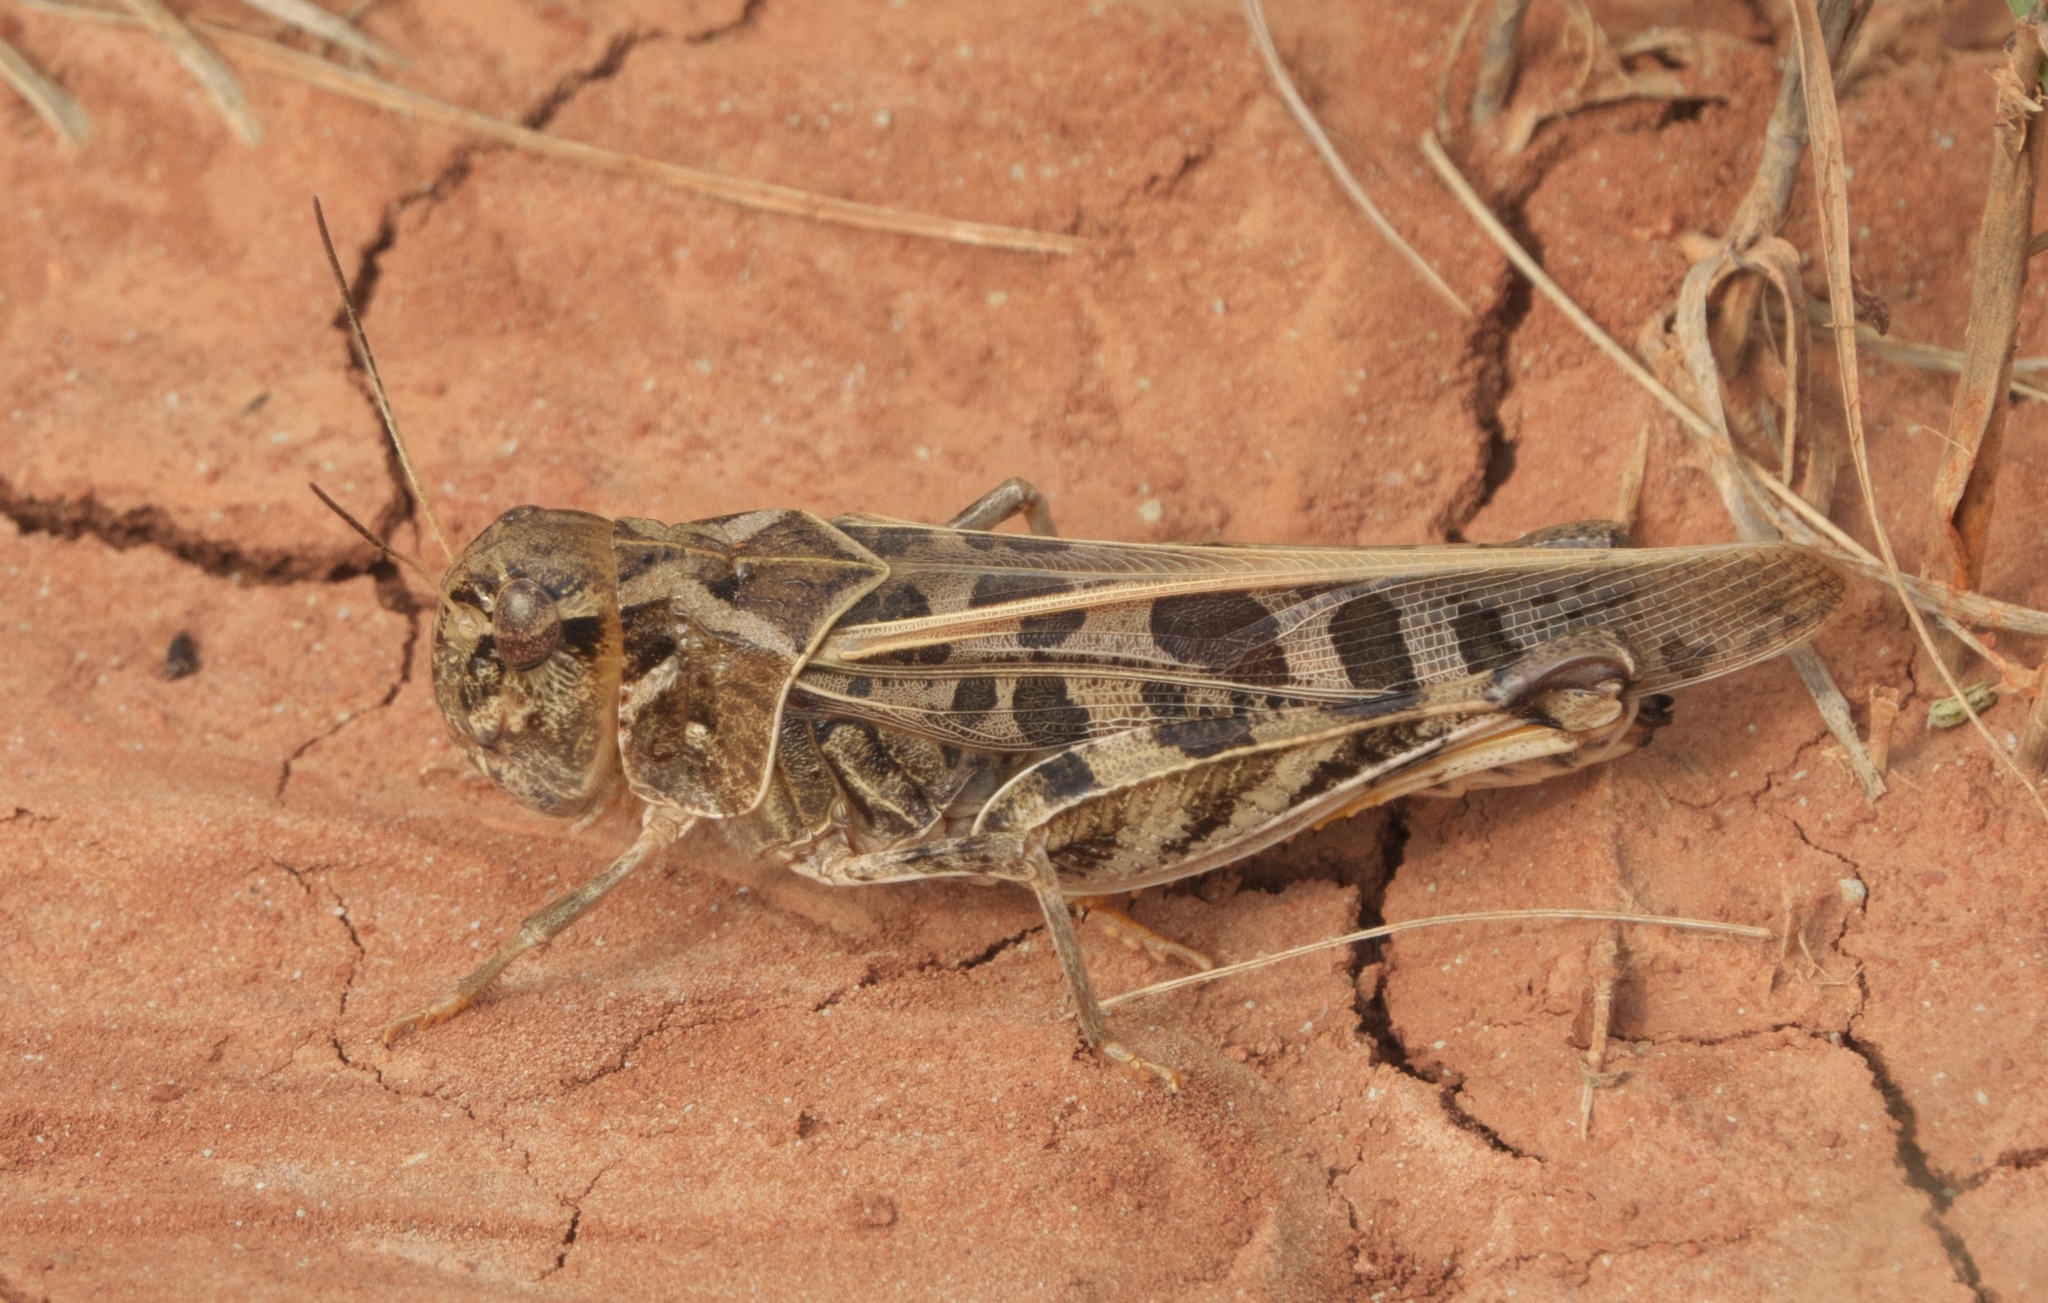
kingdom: Animalia
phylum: Arthropoda
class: Insecta
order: Orthoptera
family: Acrididae
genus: Hippiscus
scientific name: Hippiscus ocelote
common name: Wrinkled grasshopper
